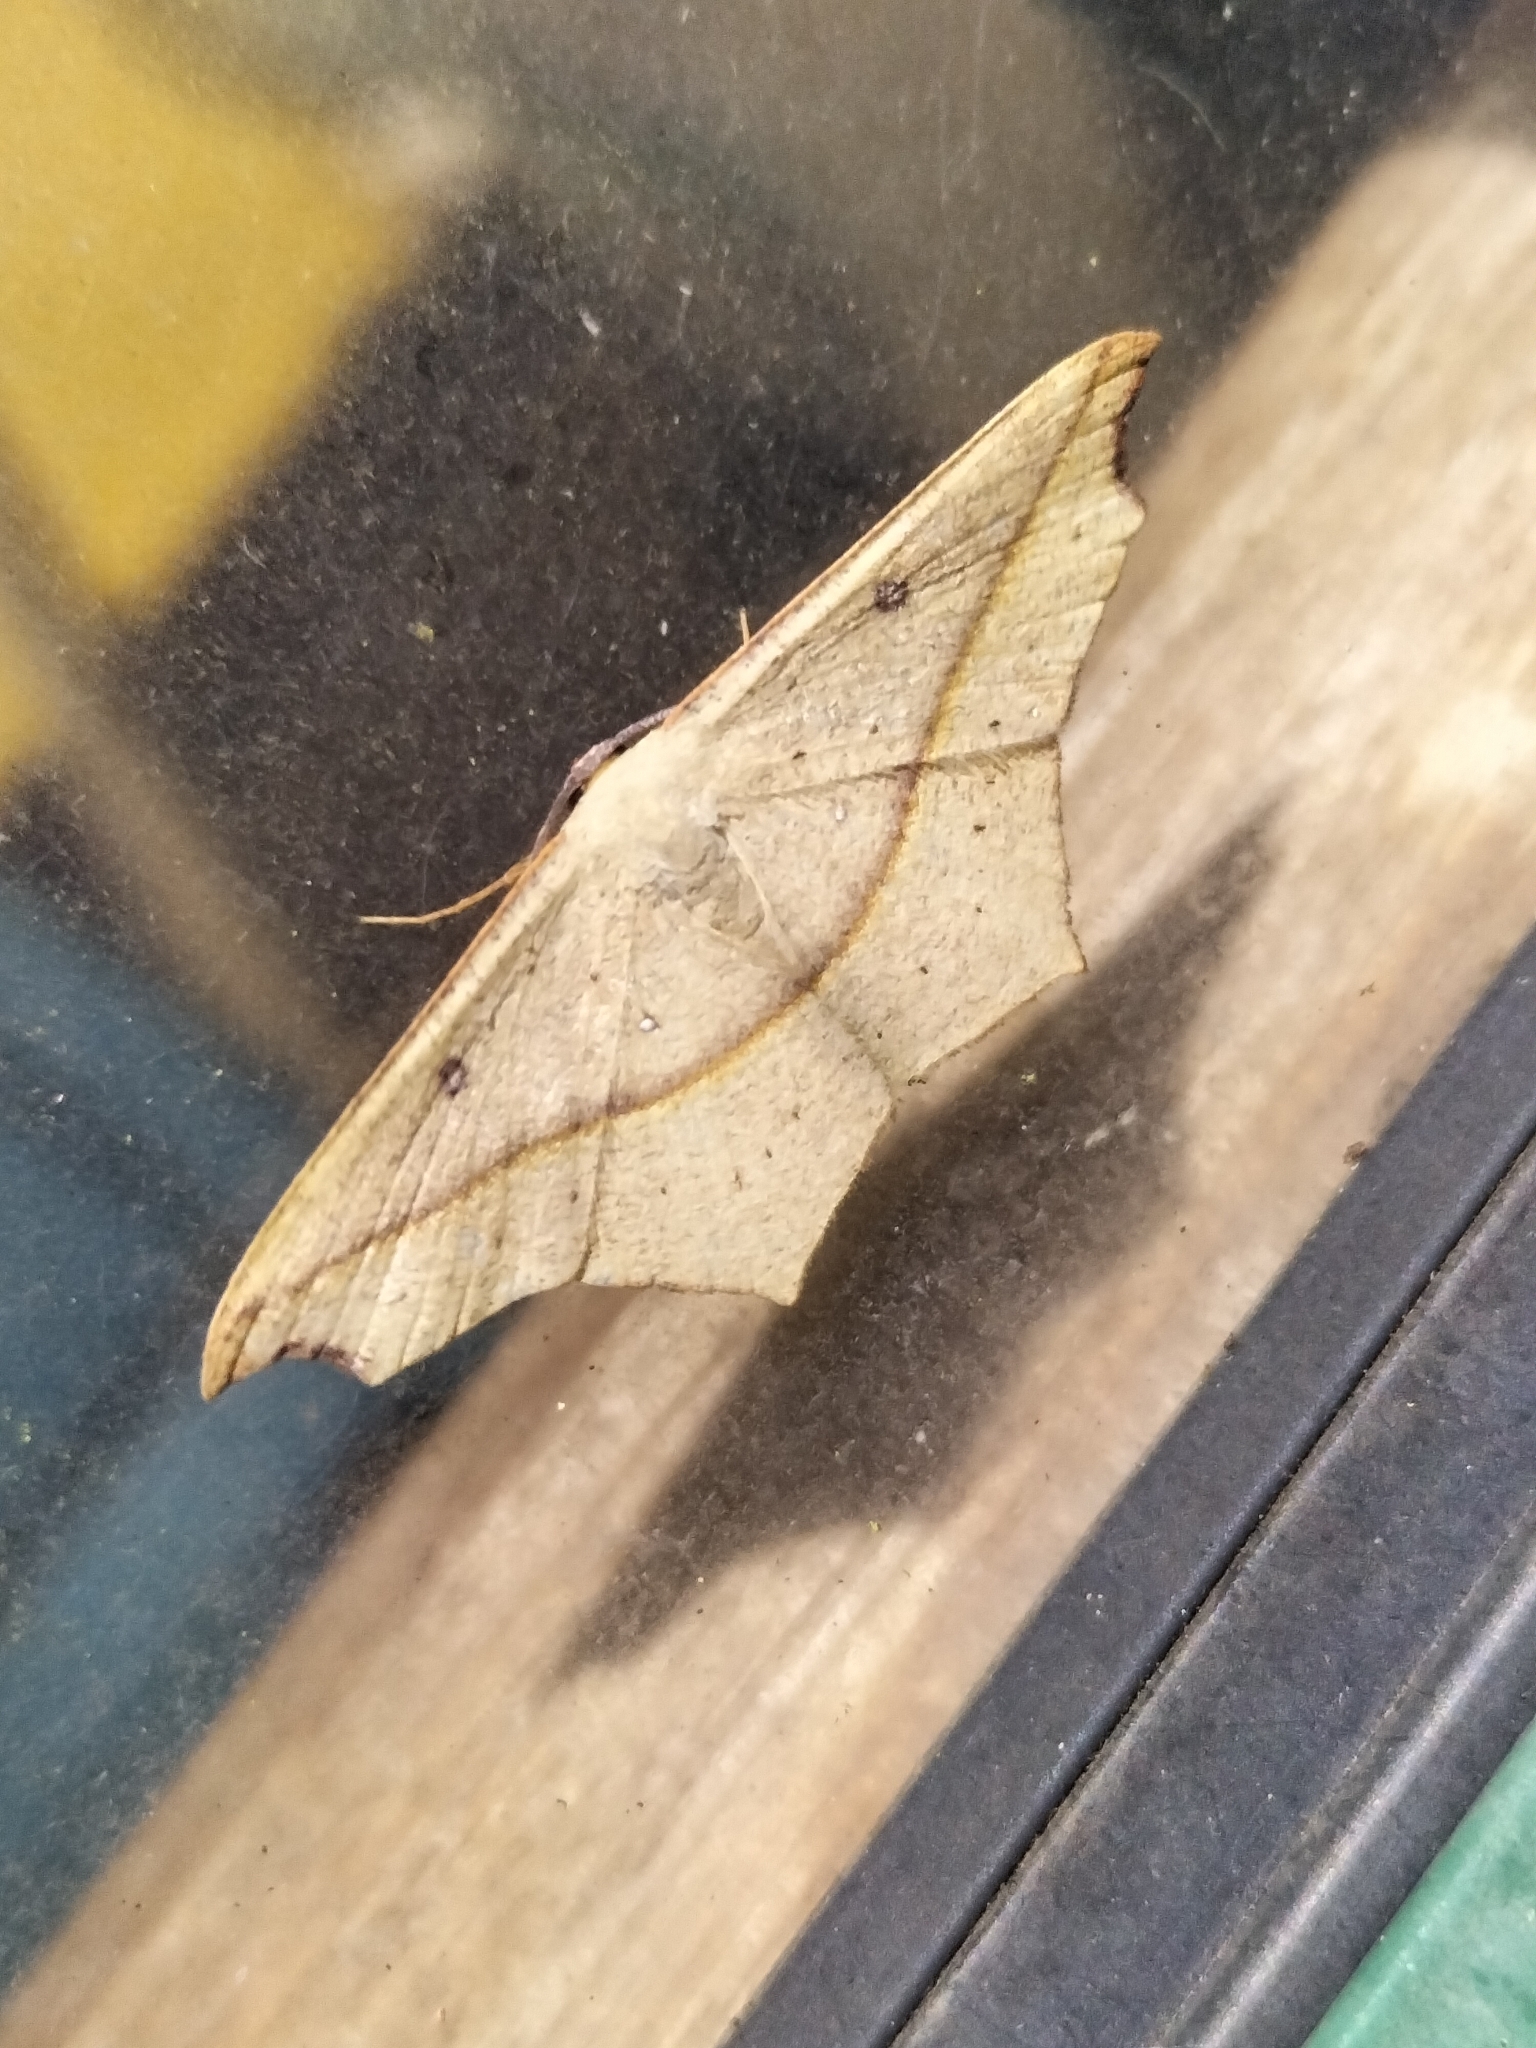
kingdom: Animalia
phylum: Arthropoda
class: Insecta
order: Lepidoptera
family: Geometridae
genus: Traminda
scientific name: Traminda aventiaria
